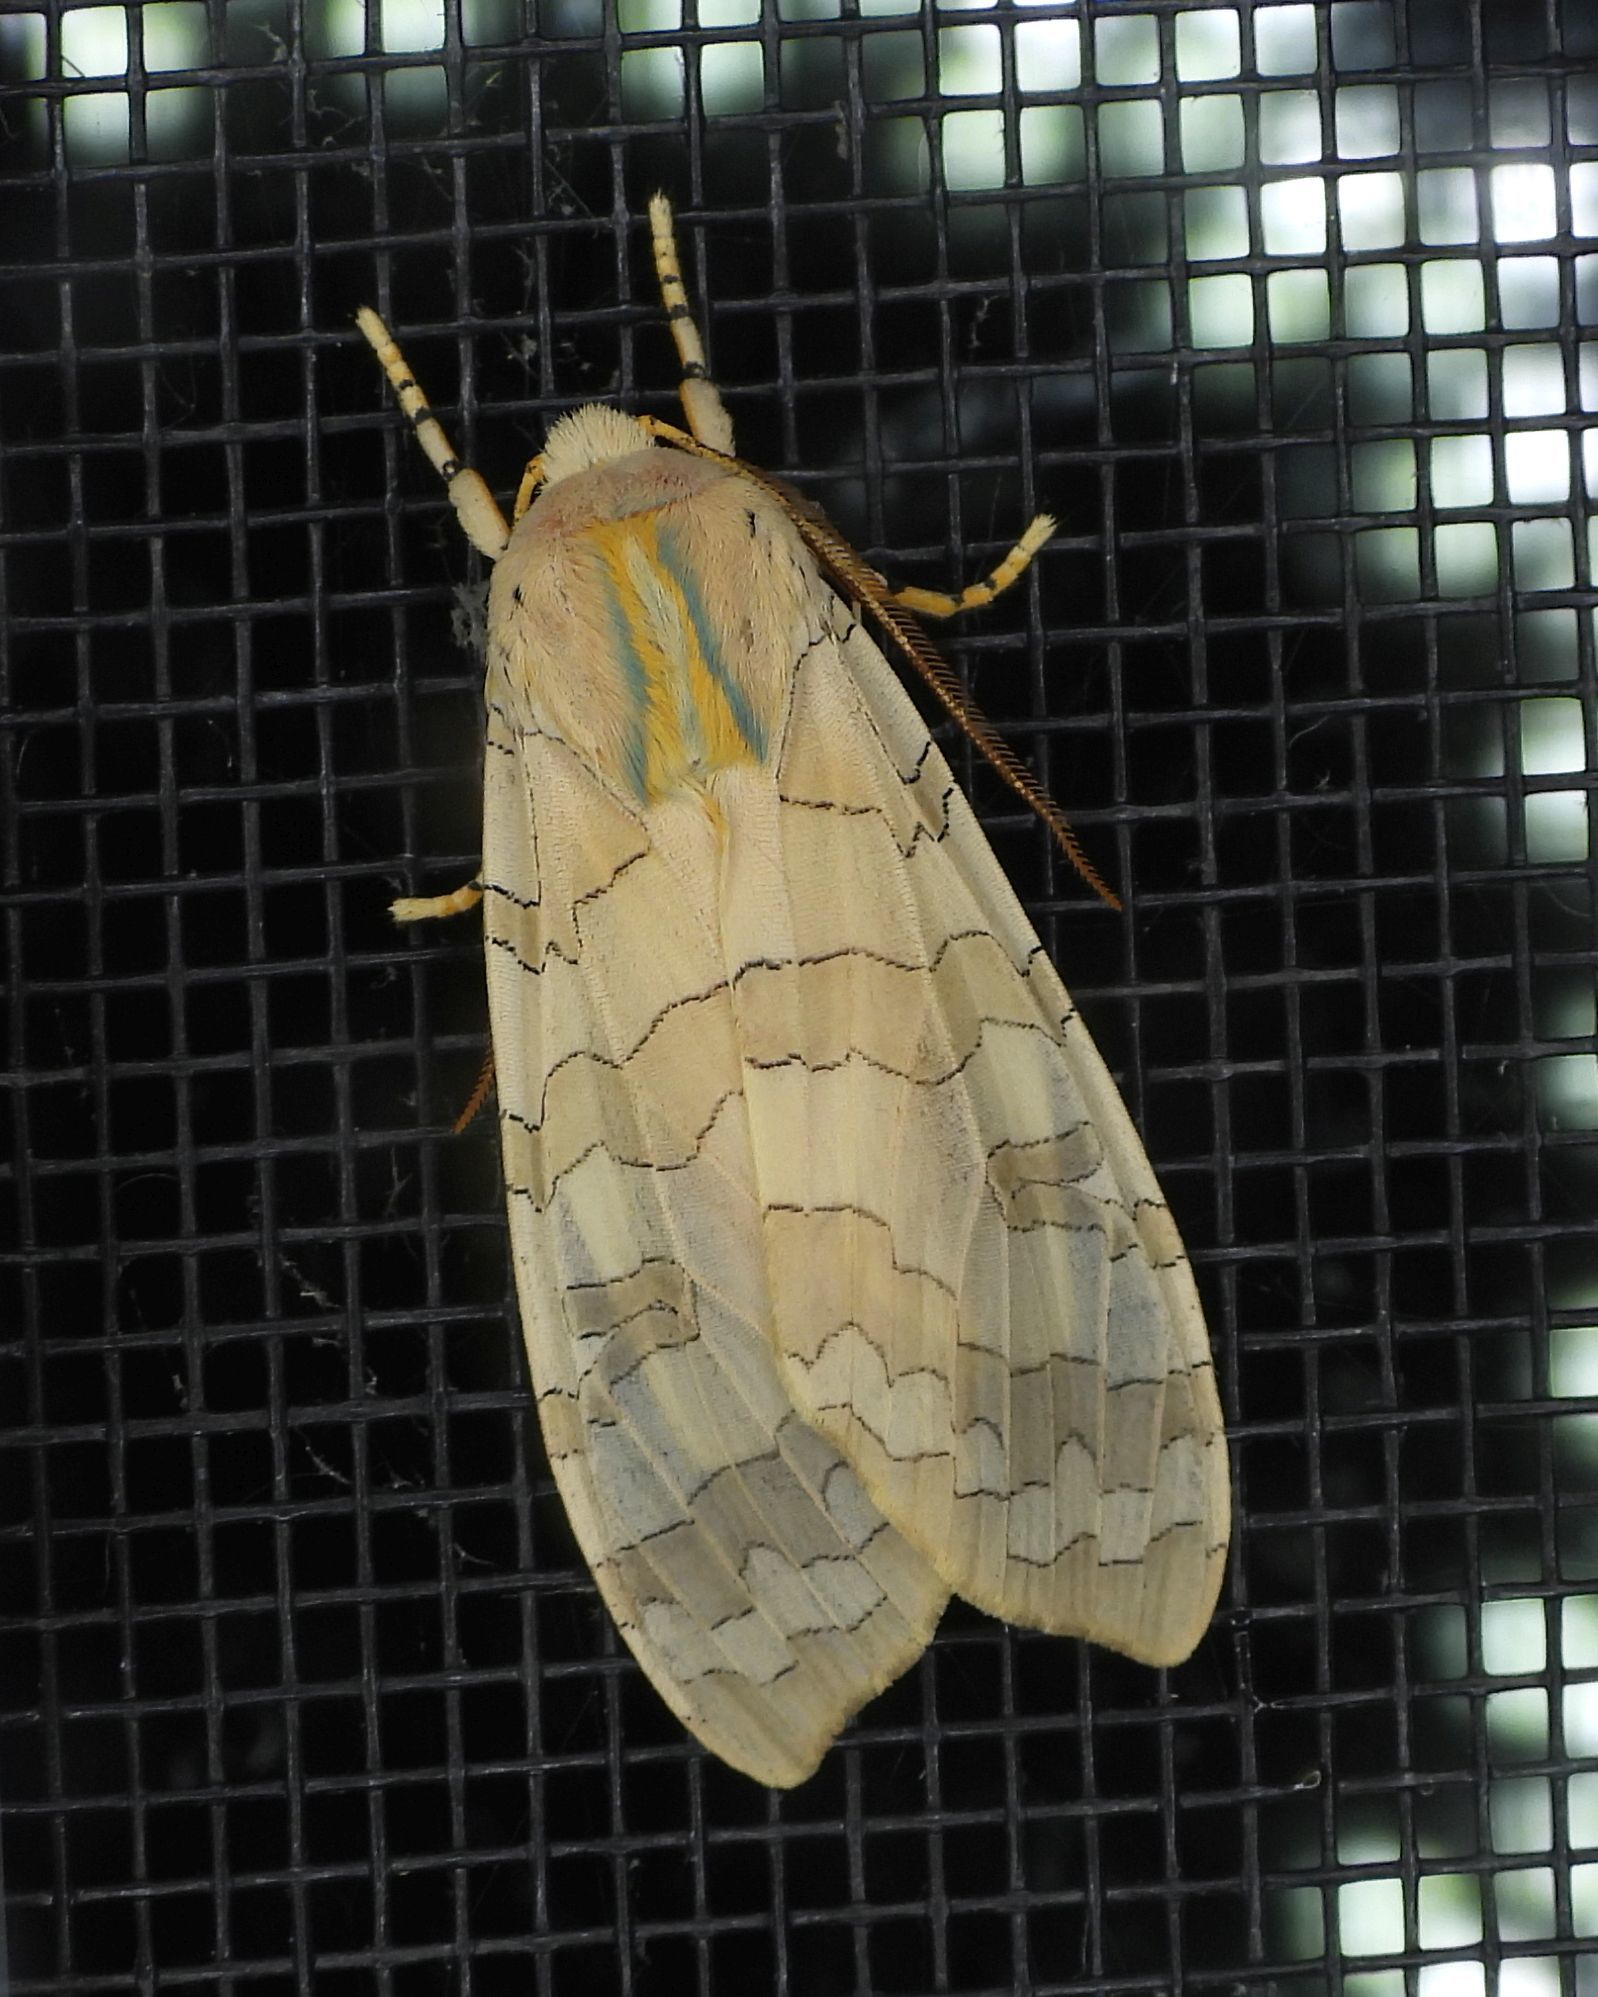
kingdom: Animalia
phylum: Arthropoda
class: Insecta
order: Lepidoptera
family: Erebidae
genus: Halysidota
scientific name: Halysidota tessellaris
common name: Banded tussock moth
